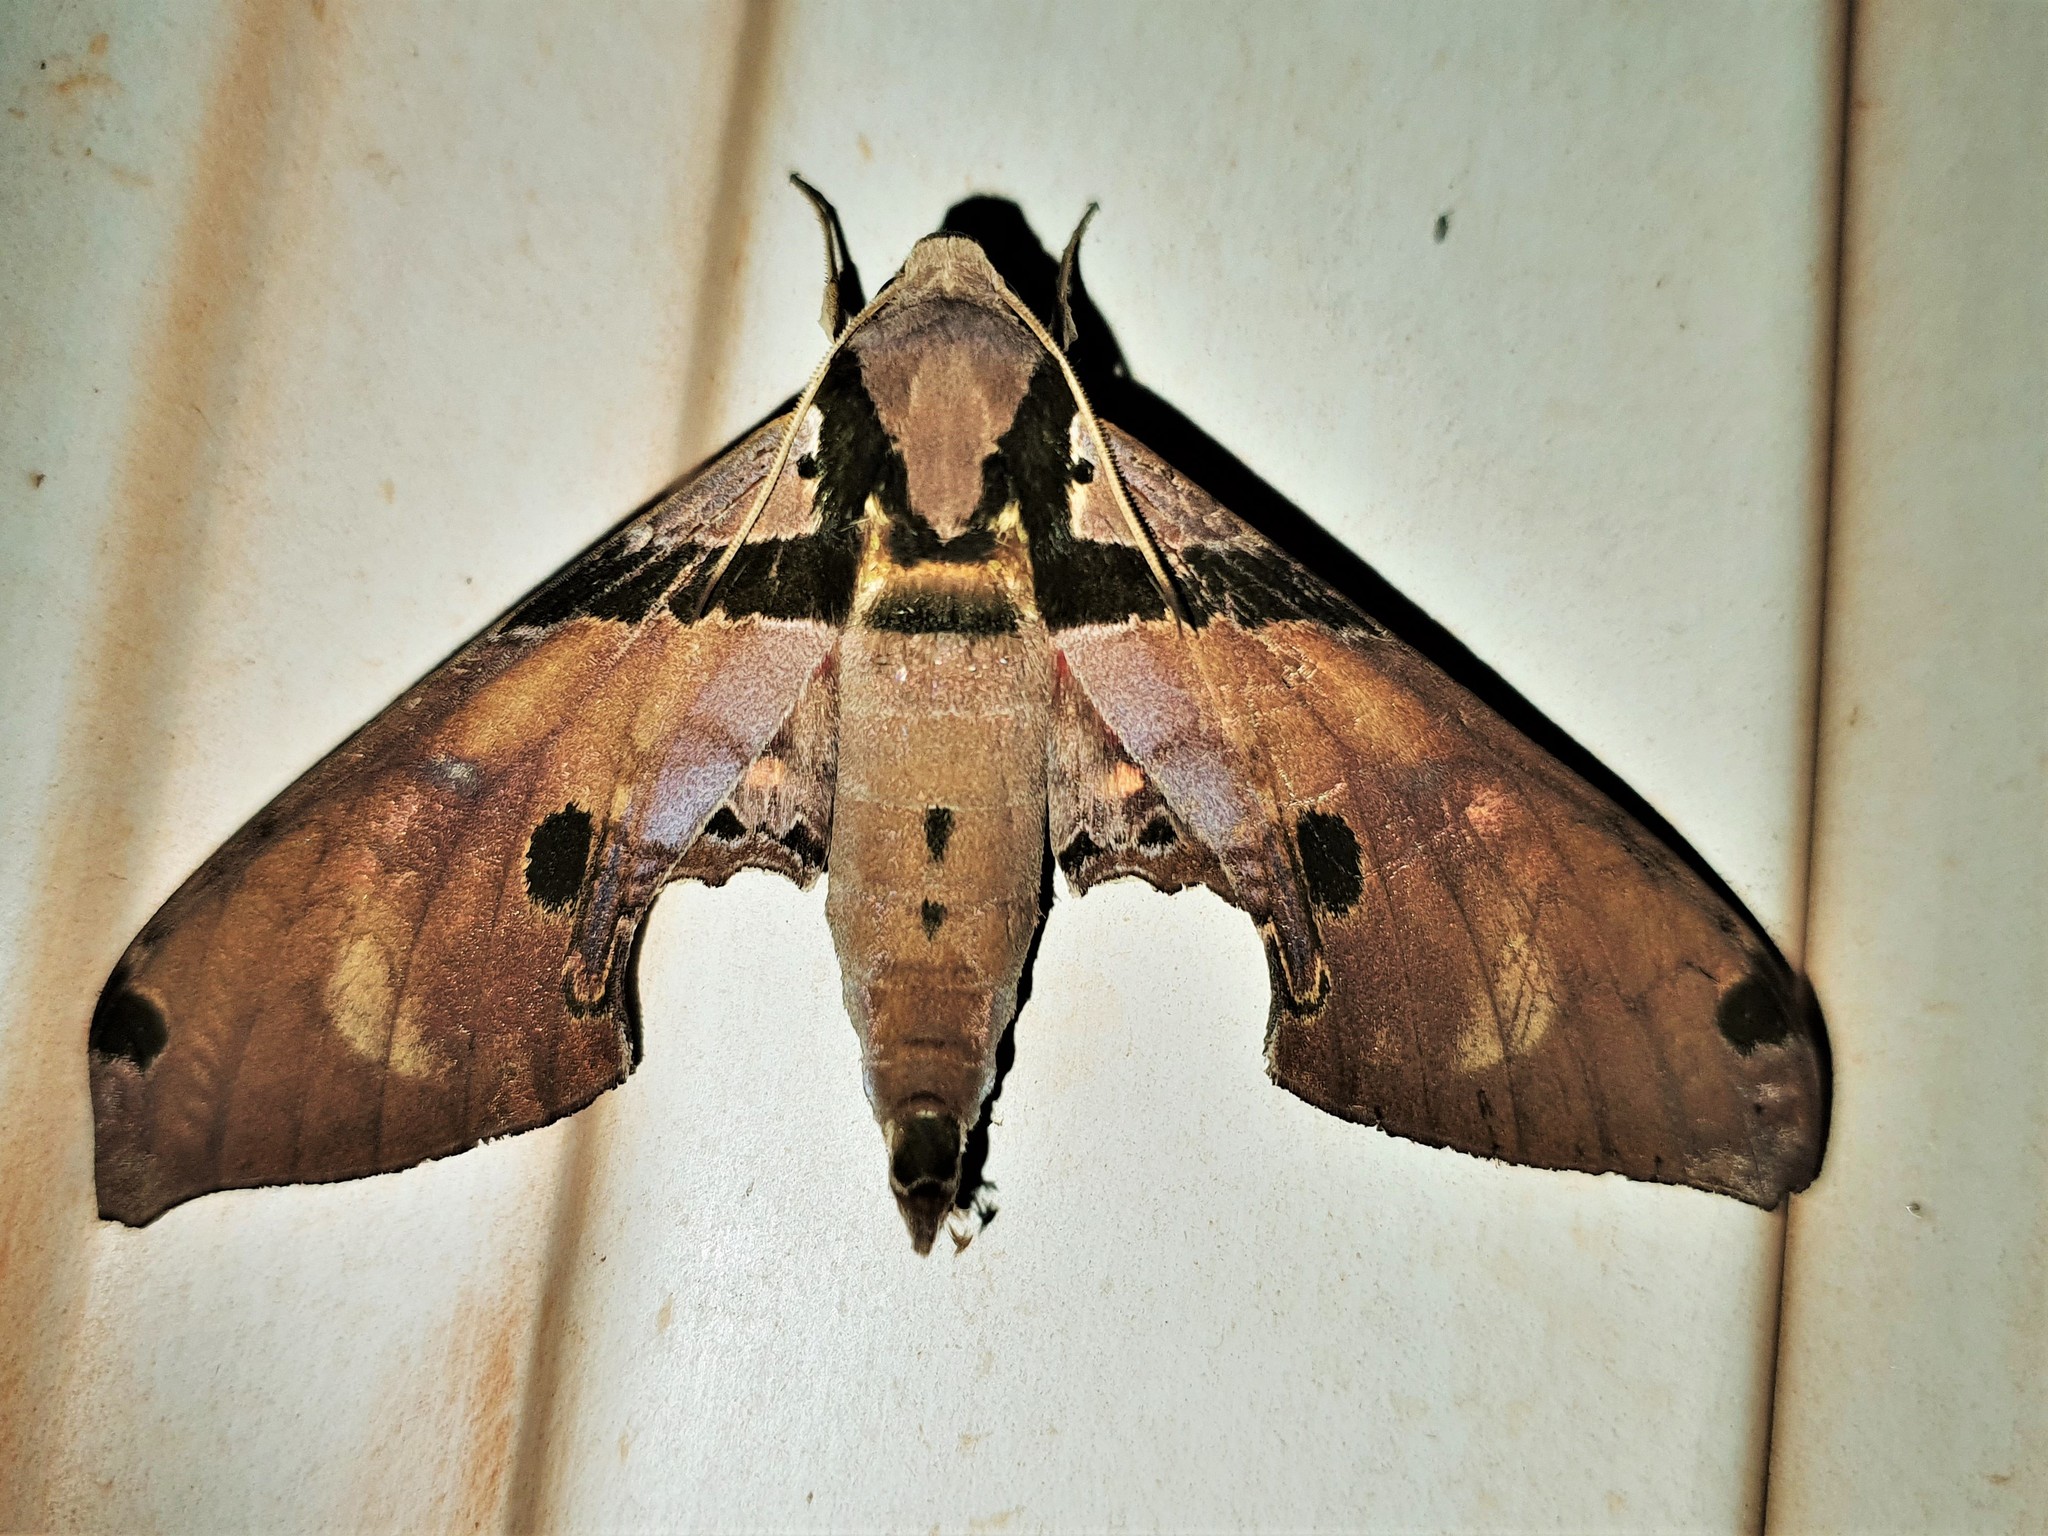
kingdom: Animalia
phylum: Arthropoda
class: Insecta
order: Lepidoptera
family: Sphingidae
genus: Adhemarius
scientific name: Adhemarius gagarini
